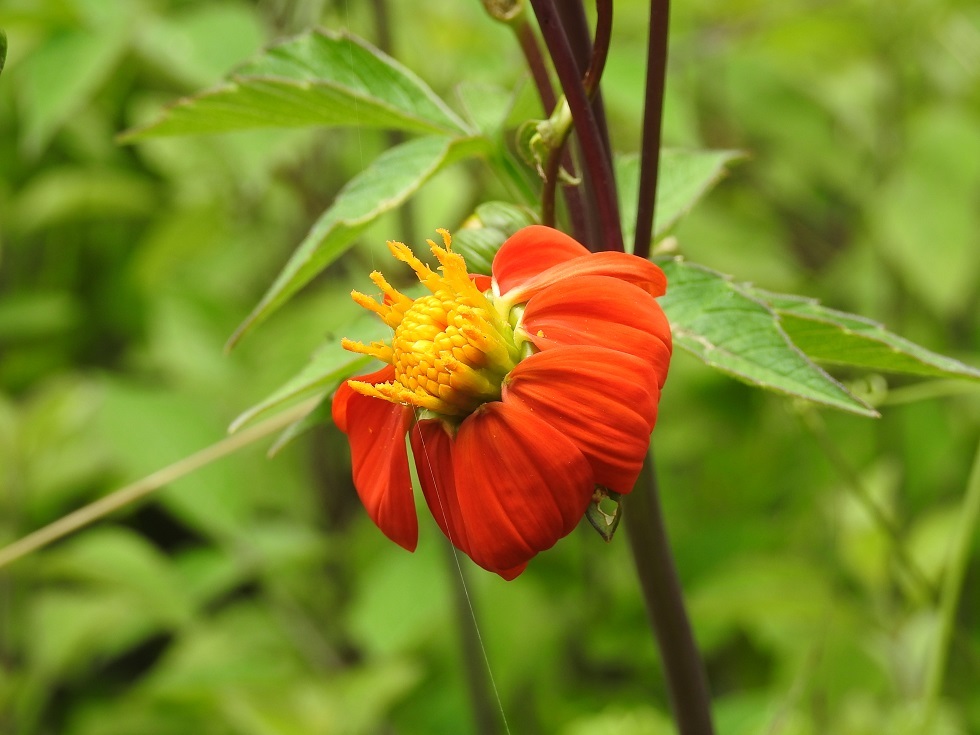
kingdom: Plantae
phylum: Tracheophyta
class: Magnoliopsida
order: Asterales
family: Asteraceae
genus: Dahlia
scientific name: Dahlia coccinea
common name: Red dahlia
